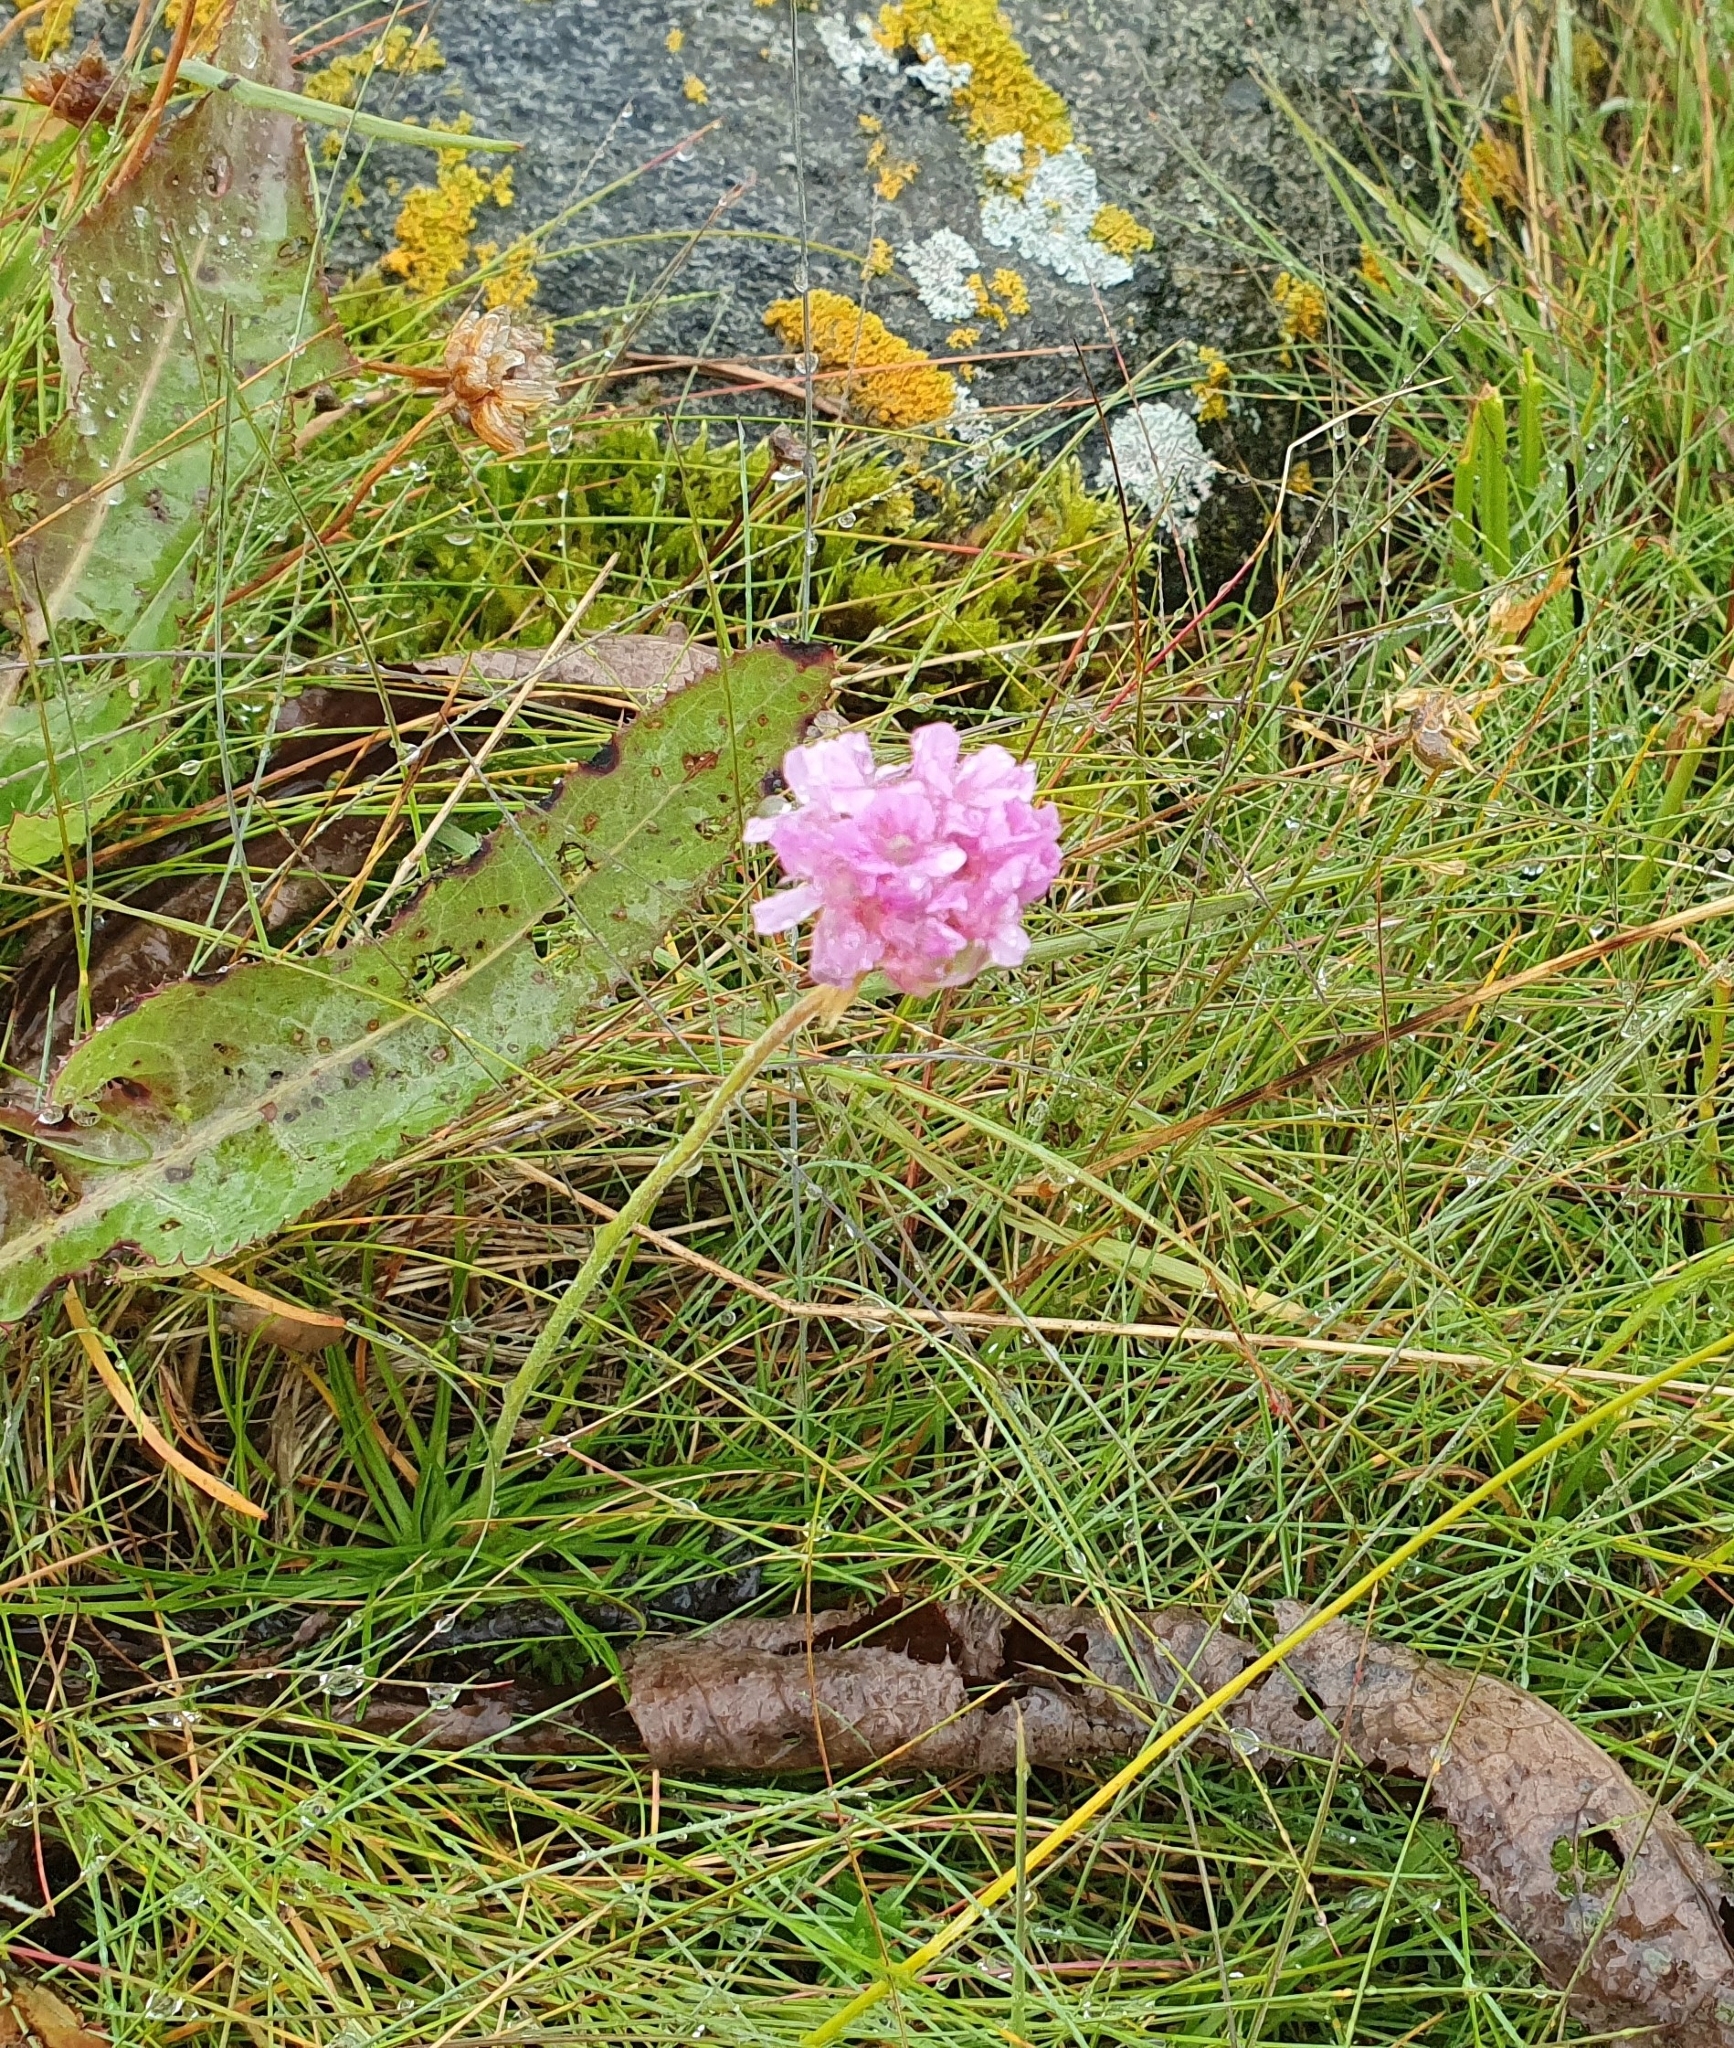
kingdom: Plantae
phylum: Tracheophyta
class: Magnoliopsida
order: Caryophyllales
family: Plumbaginaceae
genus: Armeria
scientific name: Armeria maritima
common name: Thrift
